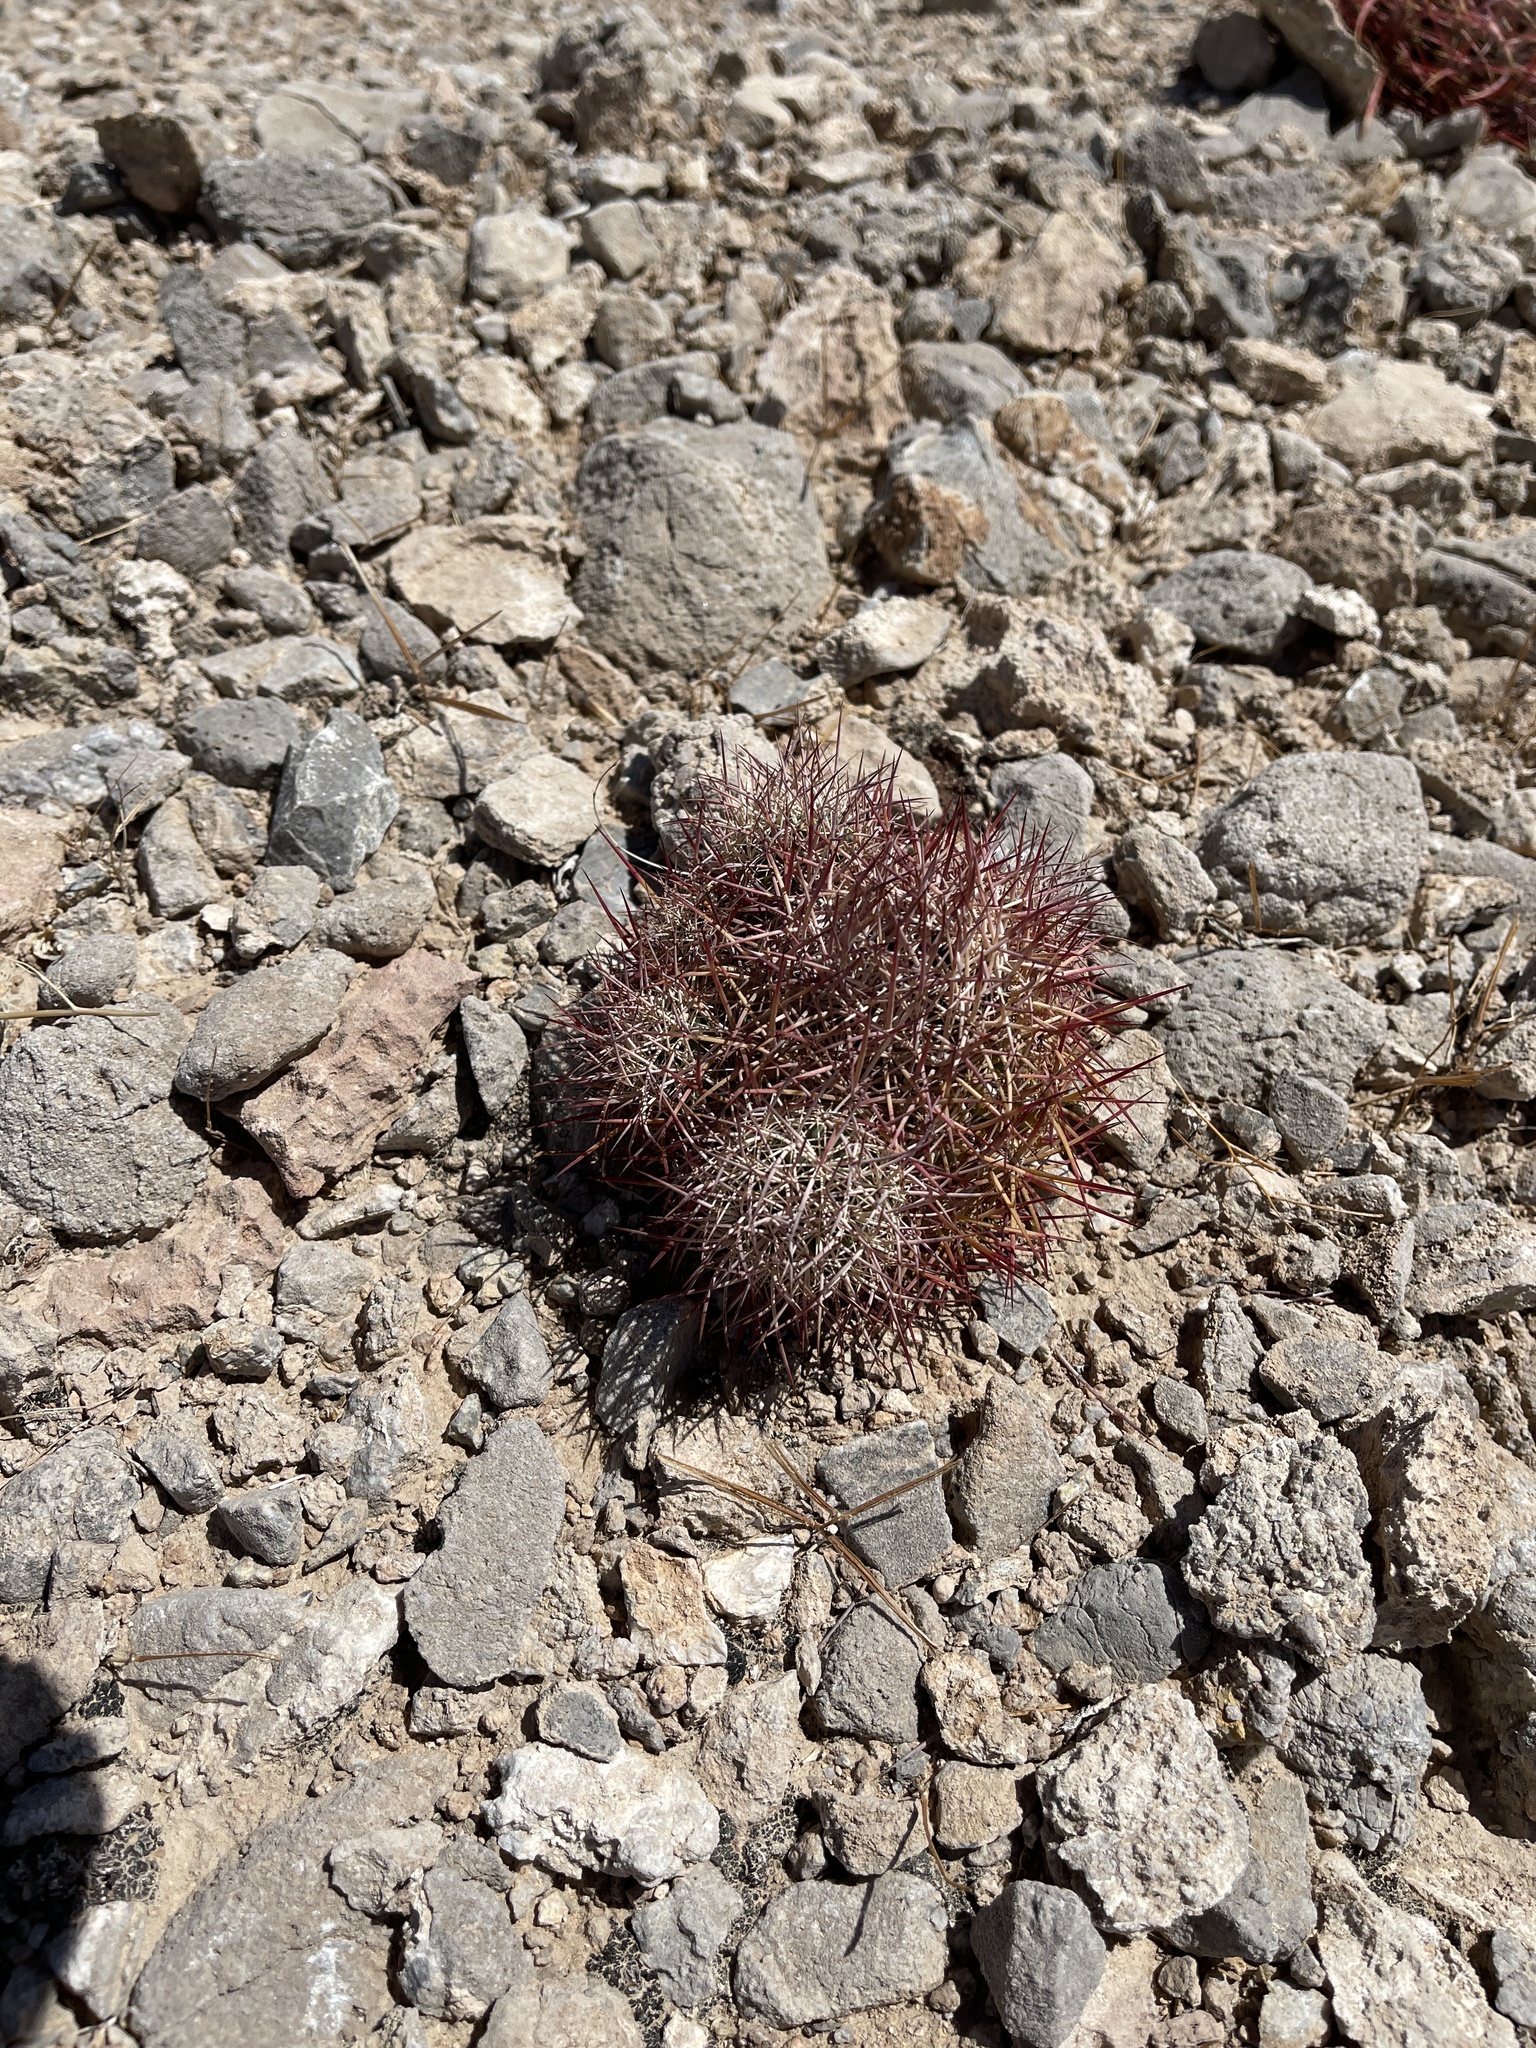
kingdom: Plantae
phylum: Tracheophyta
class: Magnoliopsida
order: Caryophyllales
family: Cactaceae
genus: Sclerocactus
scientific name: Sclerocactus johnsonii
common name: Eight-spine fishhook cactus
